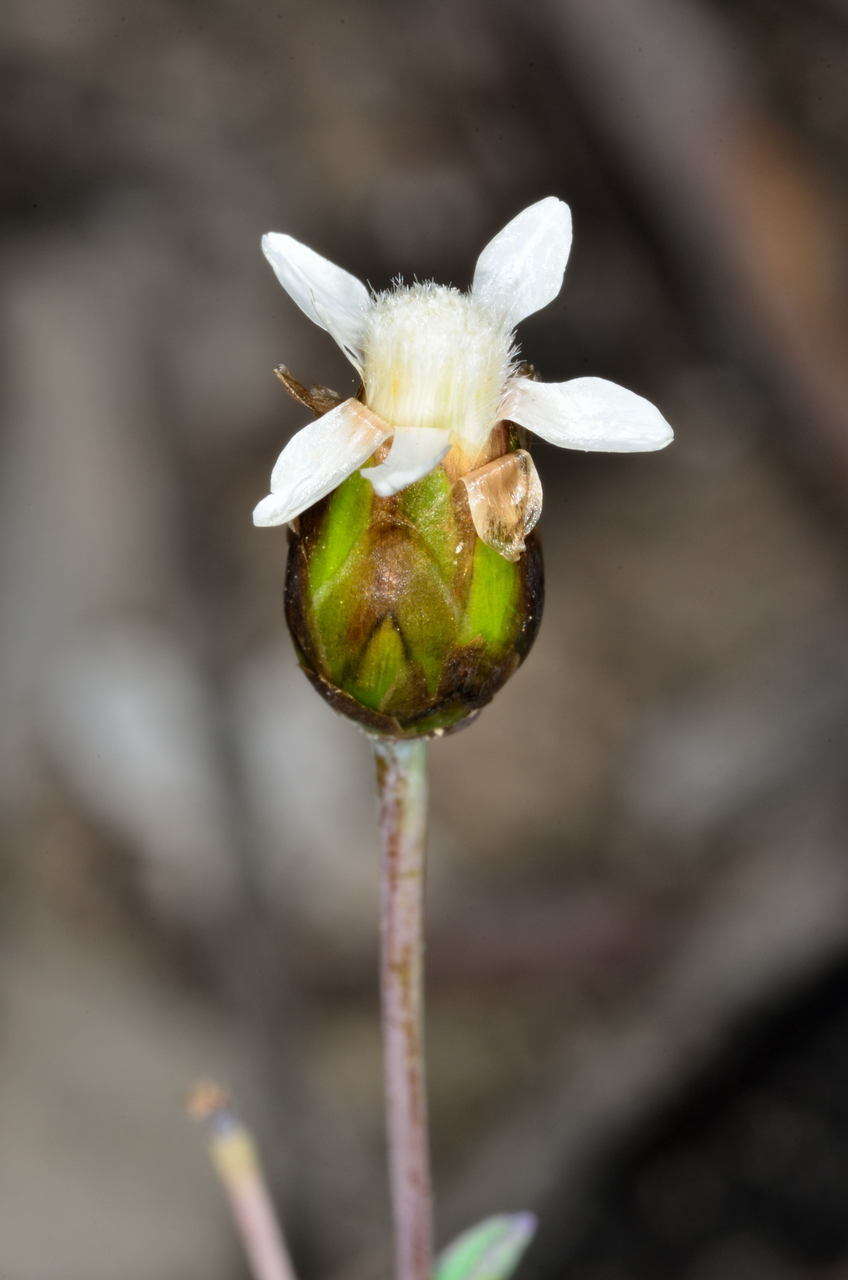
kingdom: Plantae
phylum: Tracheophyta
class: Magnoliopsida
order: Asterales
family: Asteraceae
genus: Rhodanthe
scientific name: Rhodanthe stricta
